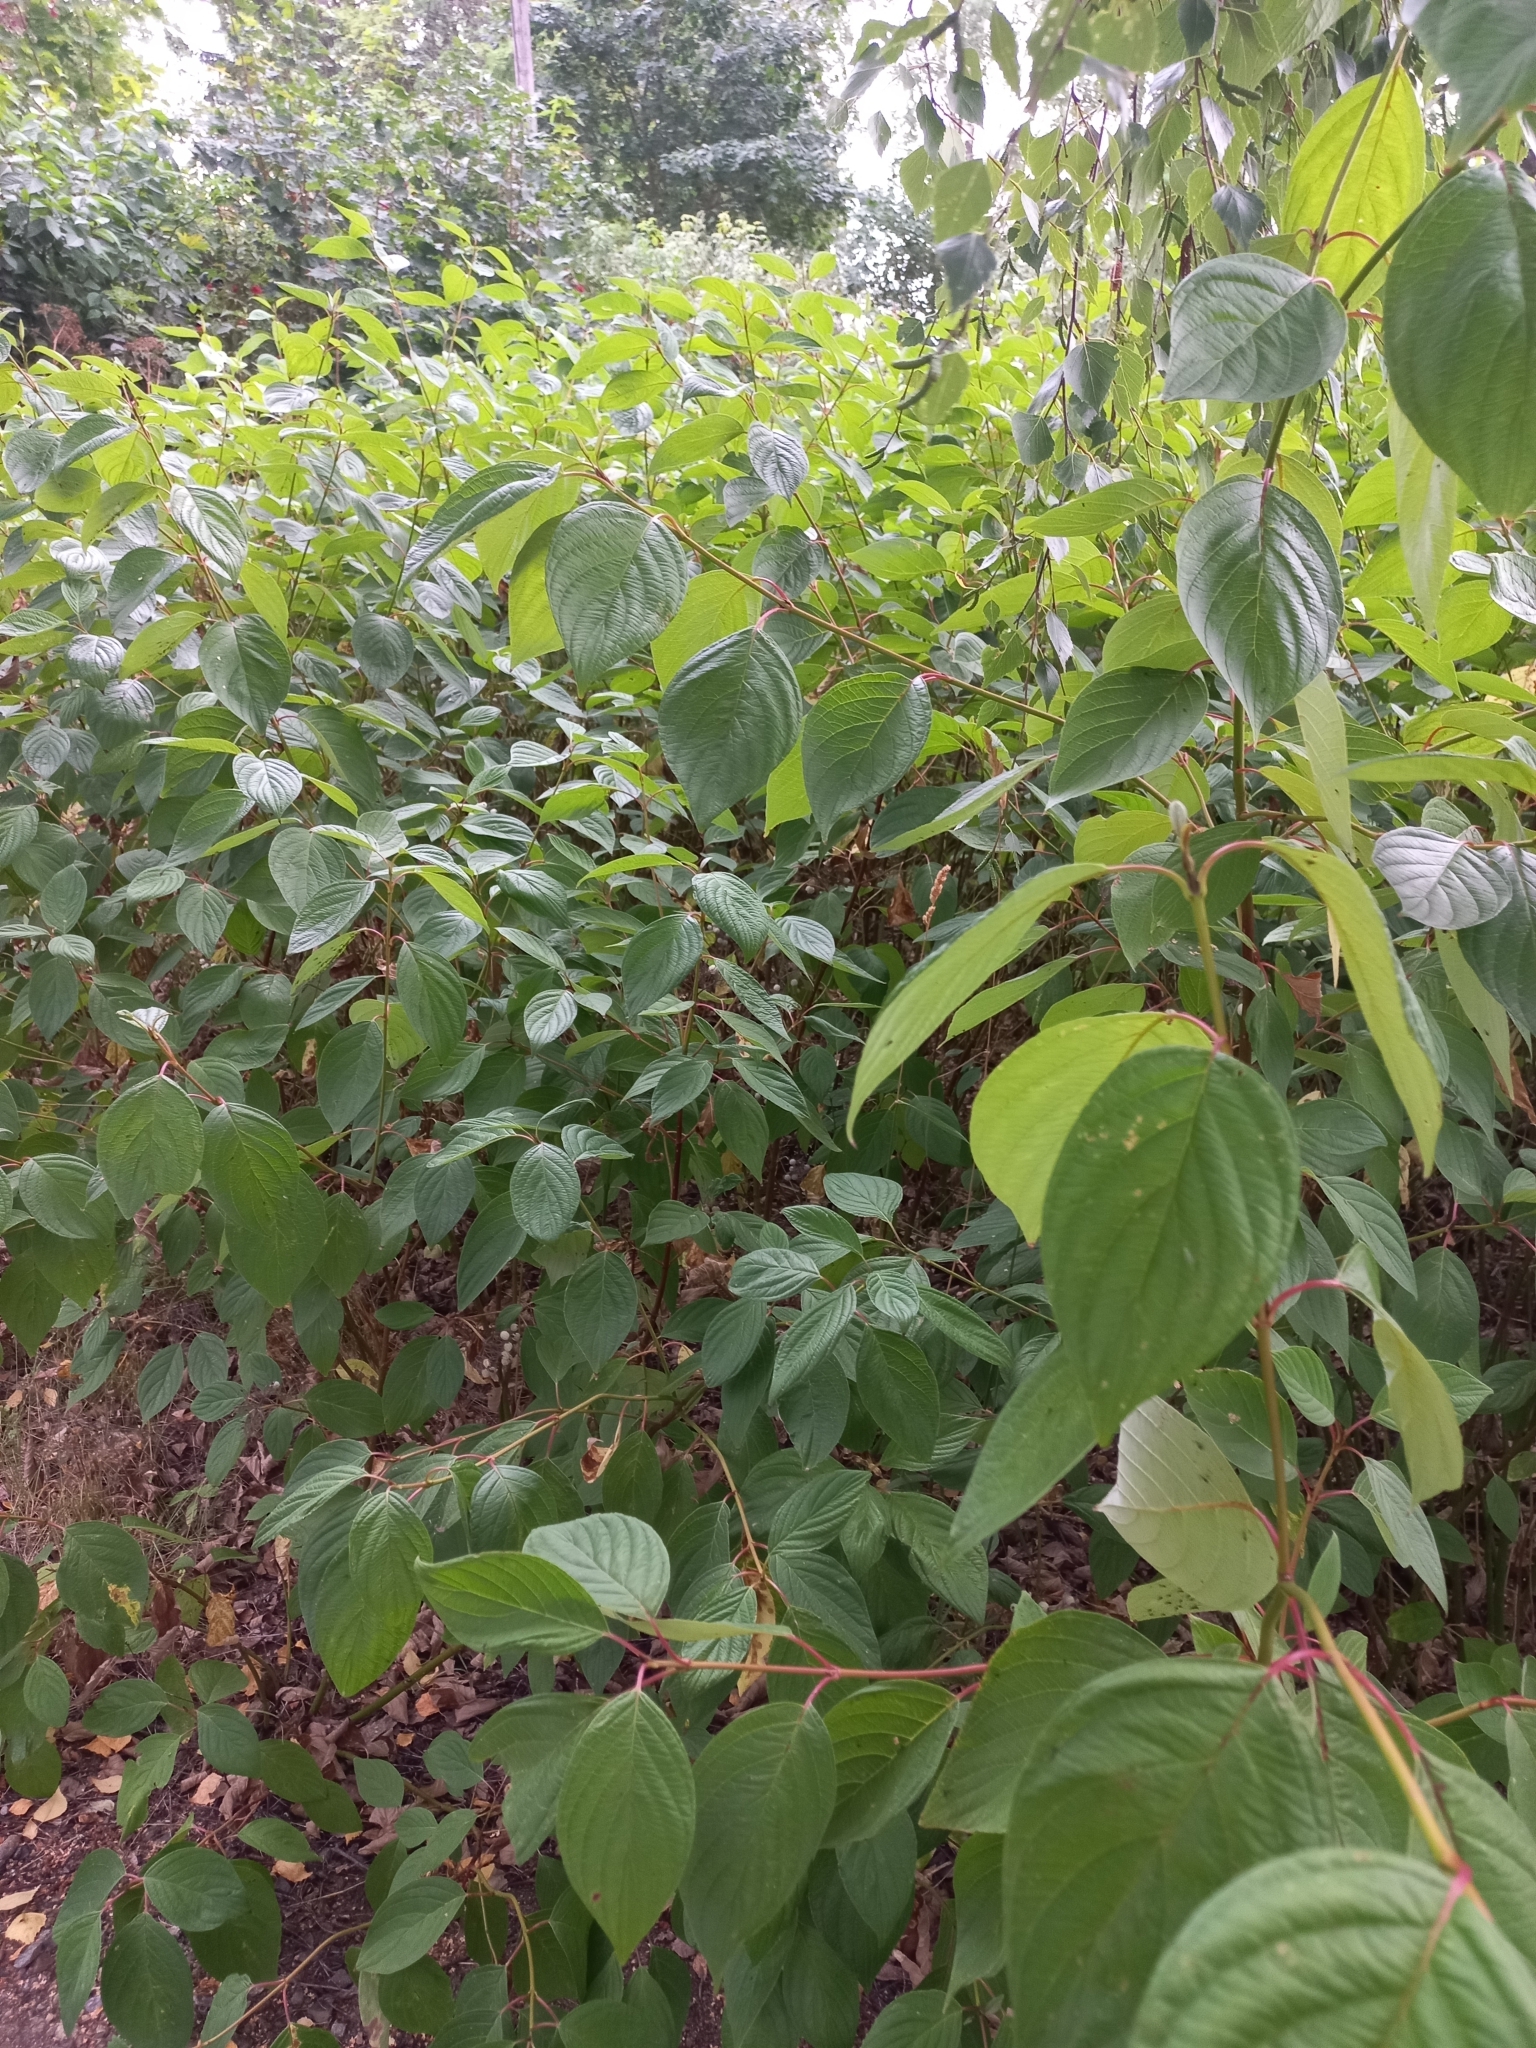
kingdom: Plantae
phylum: Tracheophyta
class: Magnoliopsida
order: Cornales
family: Cornaceae
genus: Cornus
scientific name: Cornus alba
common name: White dogwood
